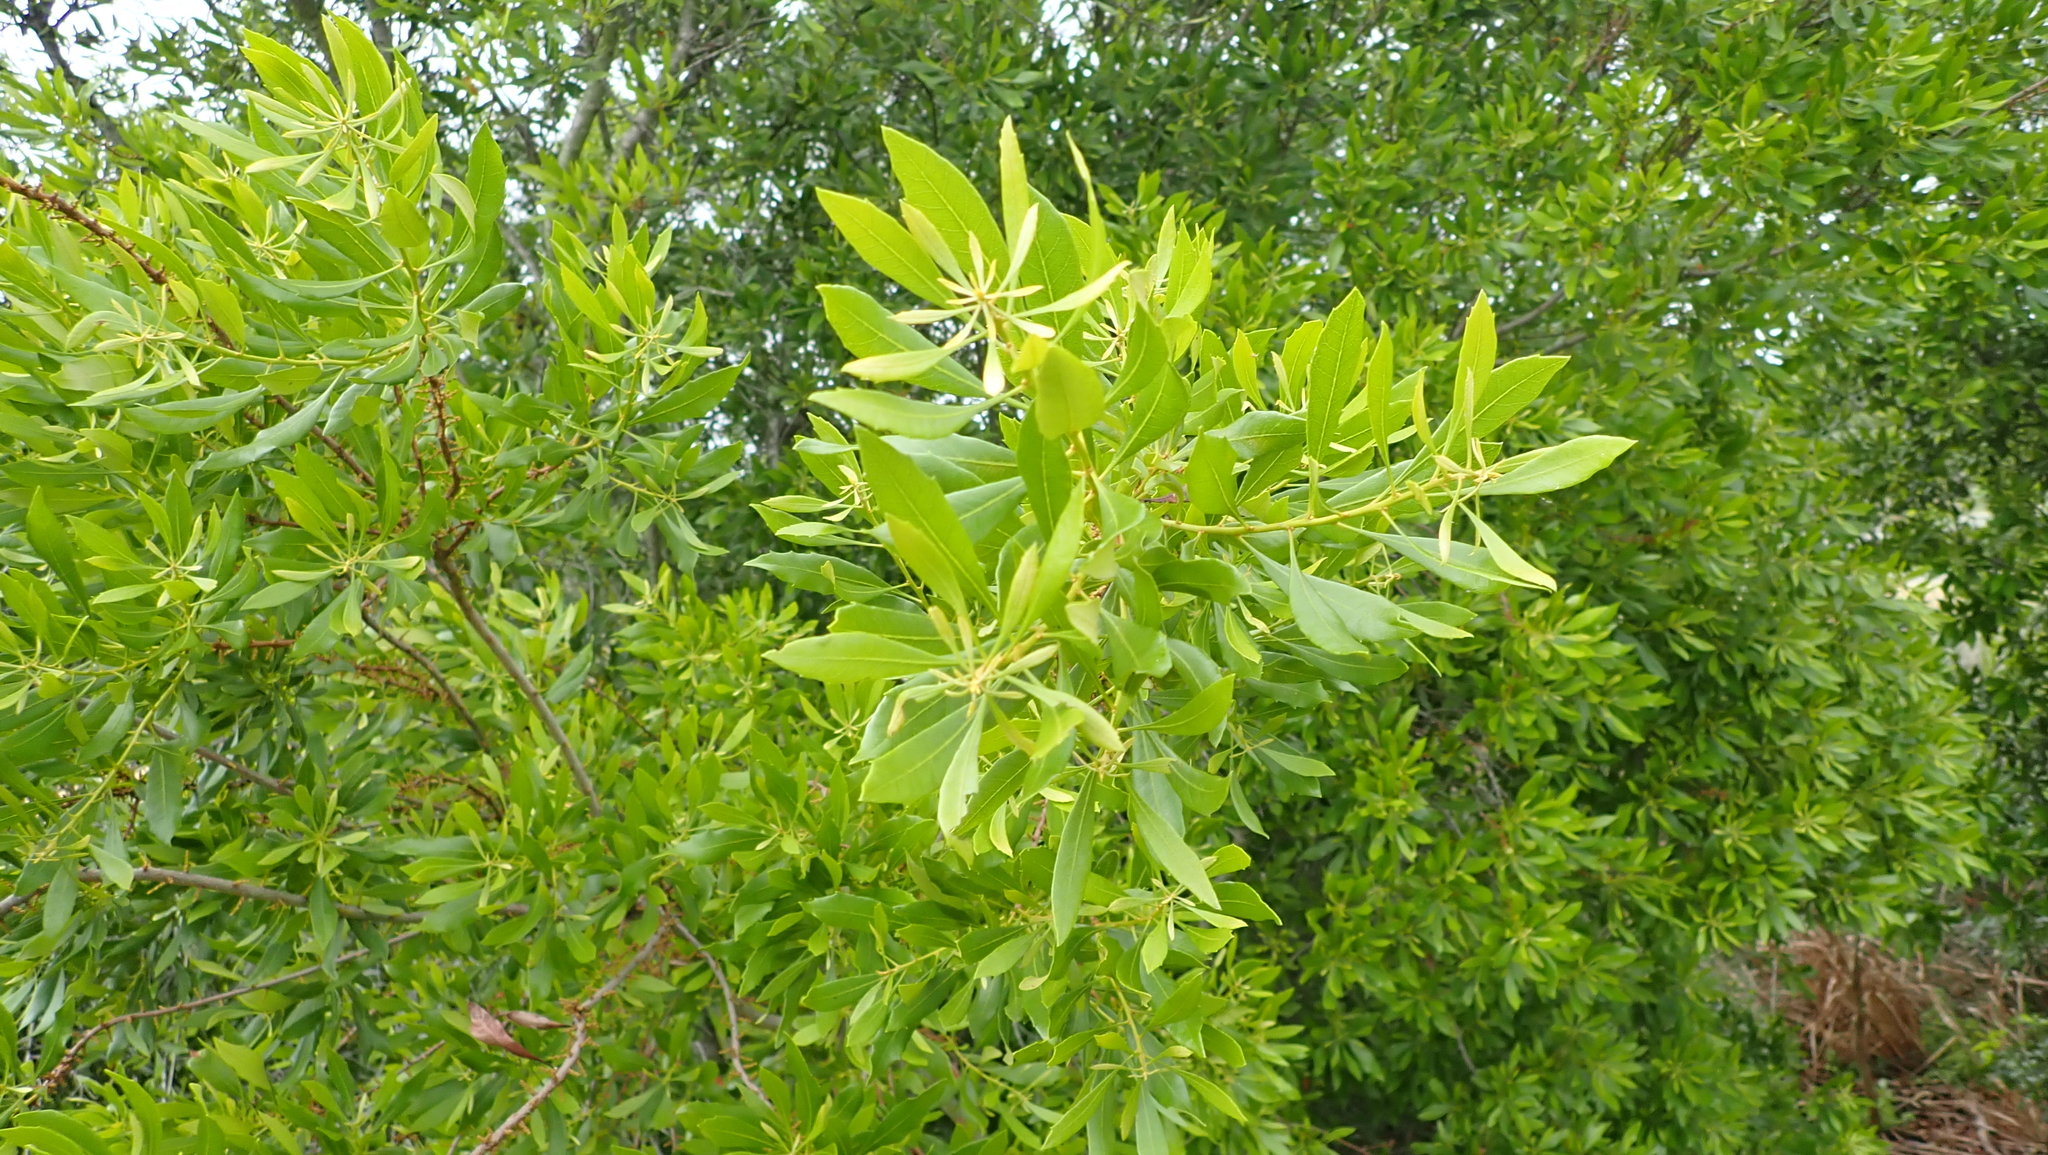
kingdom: Plantae
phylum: Tracheophyta
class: Magnoliopsida
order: Fagales
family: Myricaceae
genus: Morella
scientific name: Morella cerifera
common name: Wax myrtle
